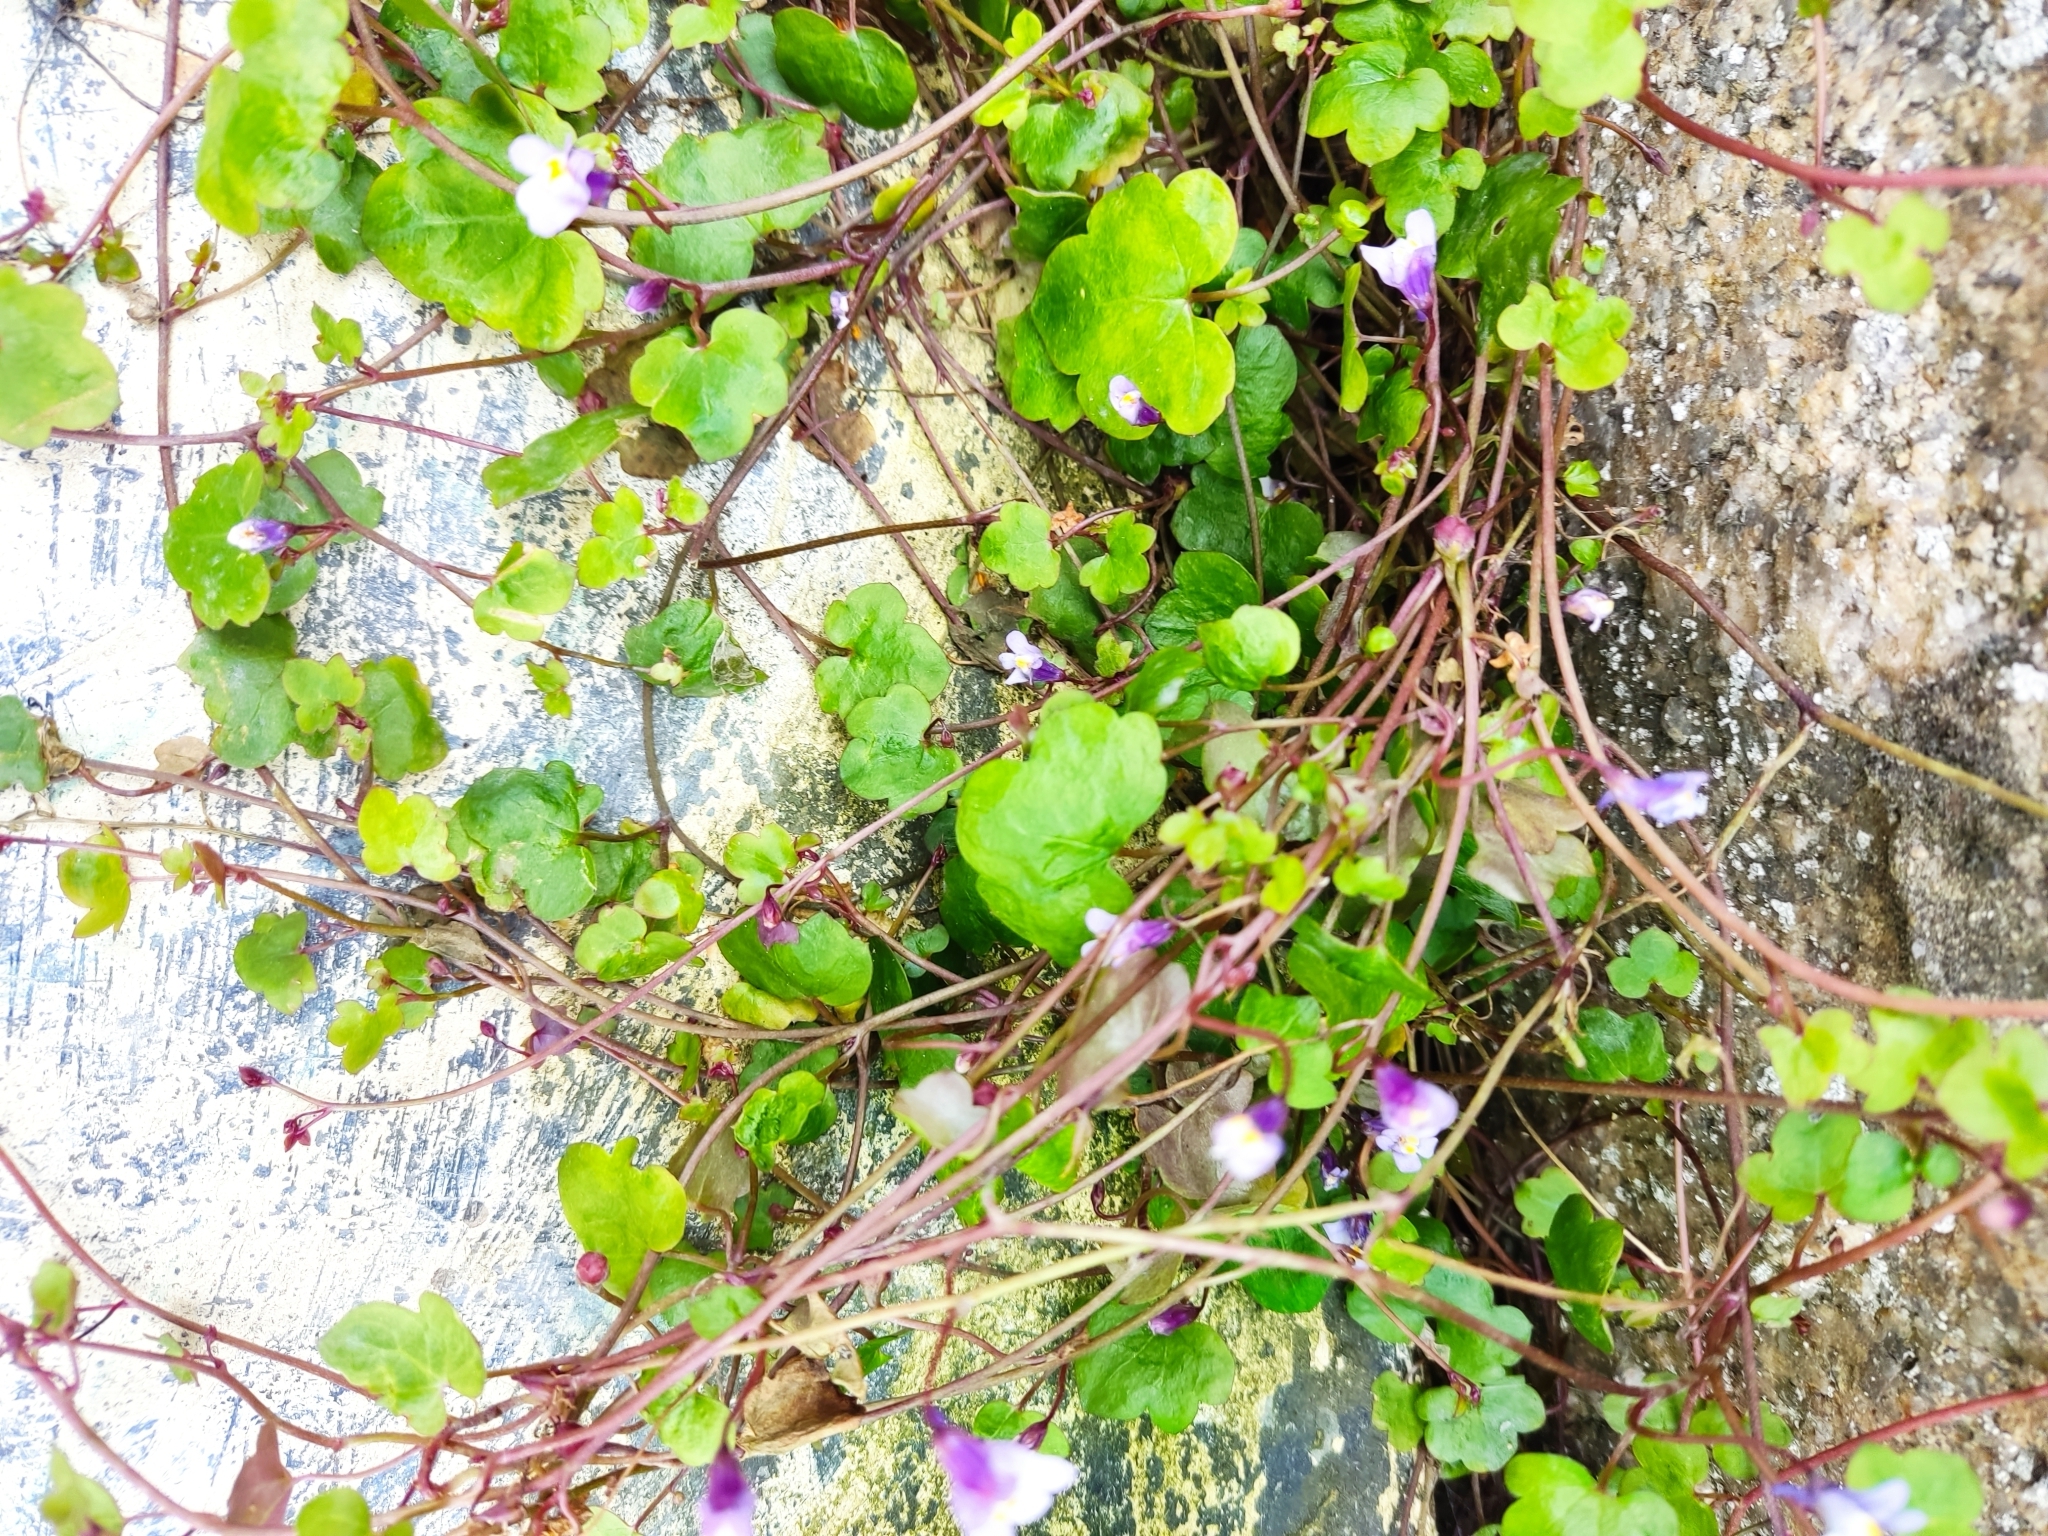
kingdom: Plantae
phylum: Tracheophyta
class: Magnoliopsida
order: Lamiales
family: Plantaginaceae
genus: Cymbalaria
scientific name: Cymbalaria muralis
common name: Ivy-leaved toadflax
